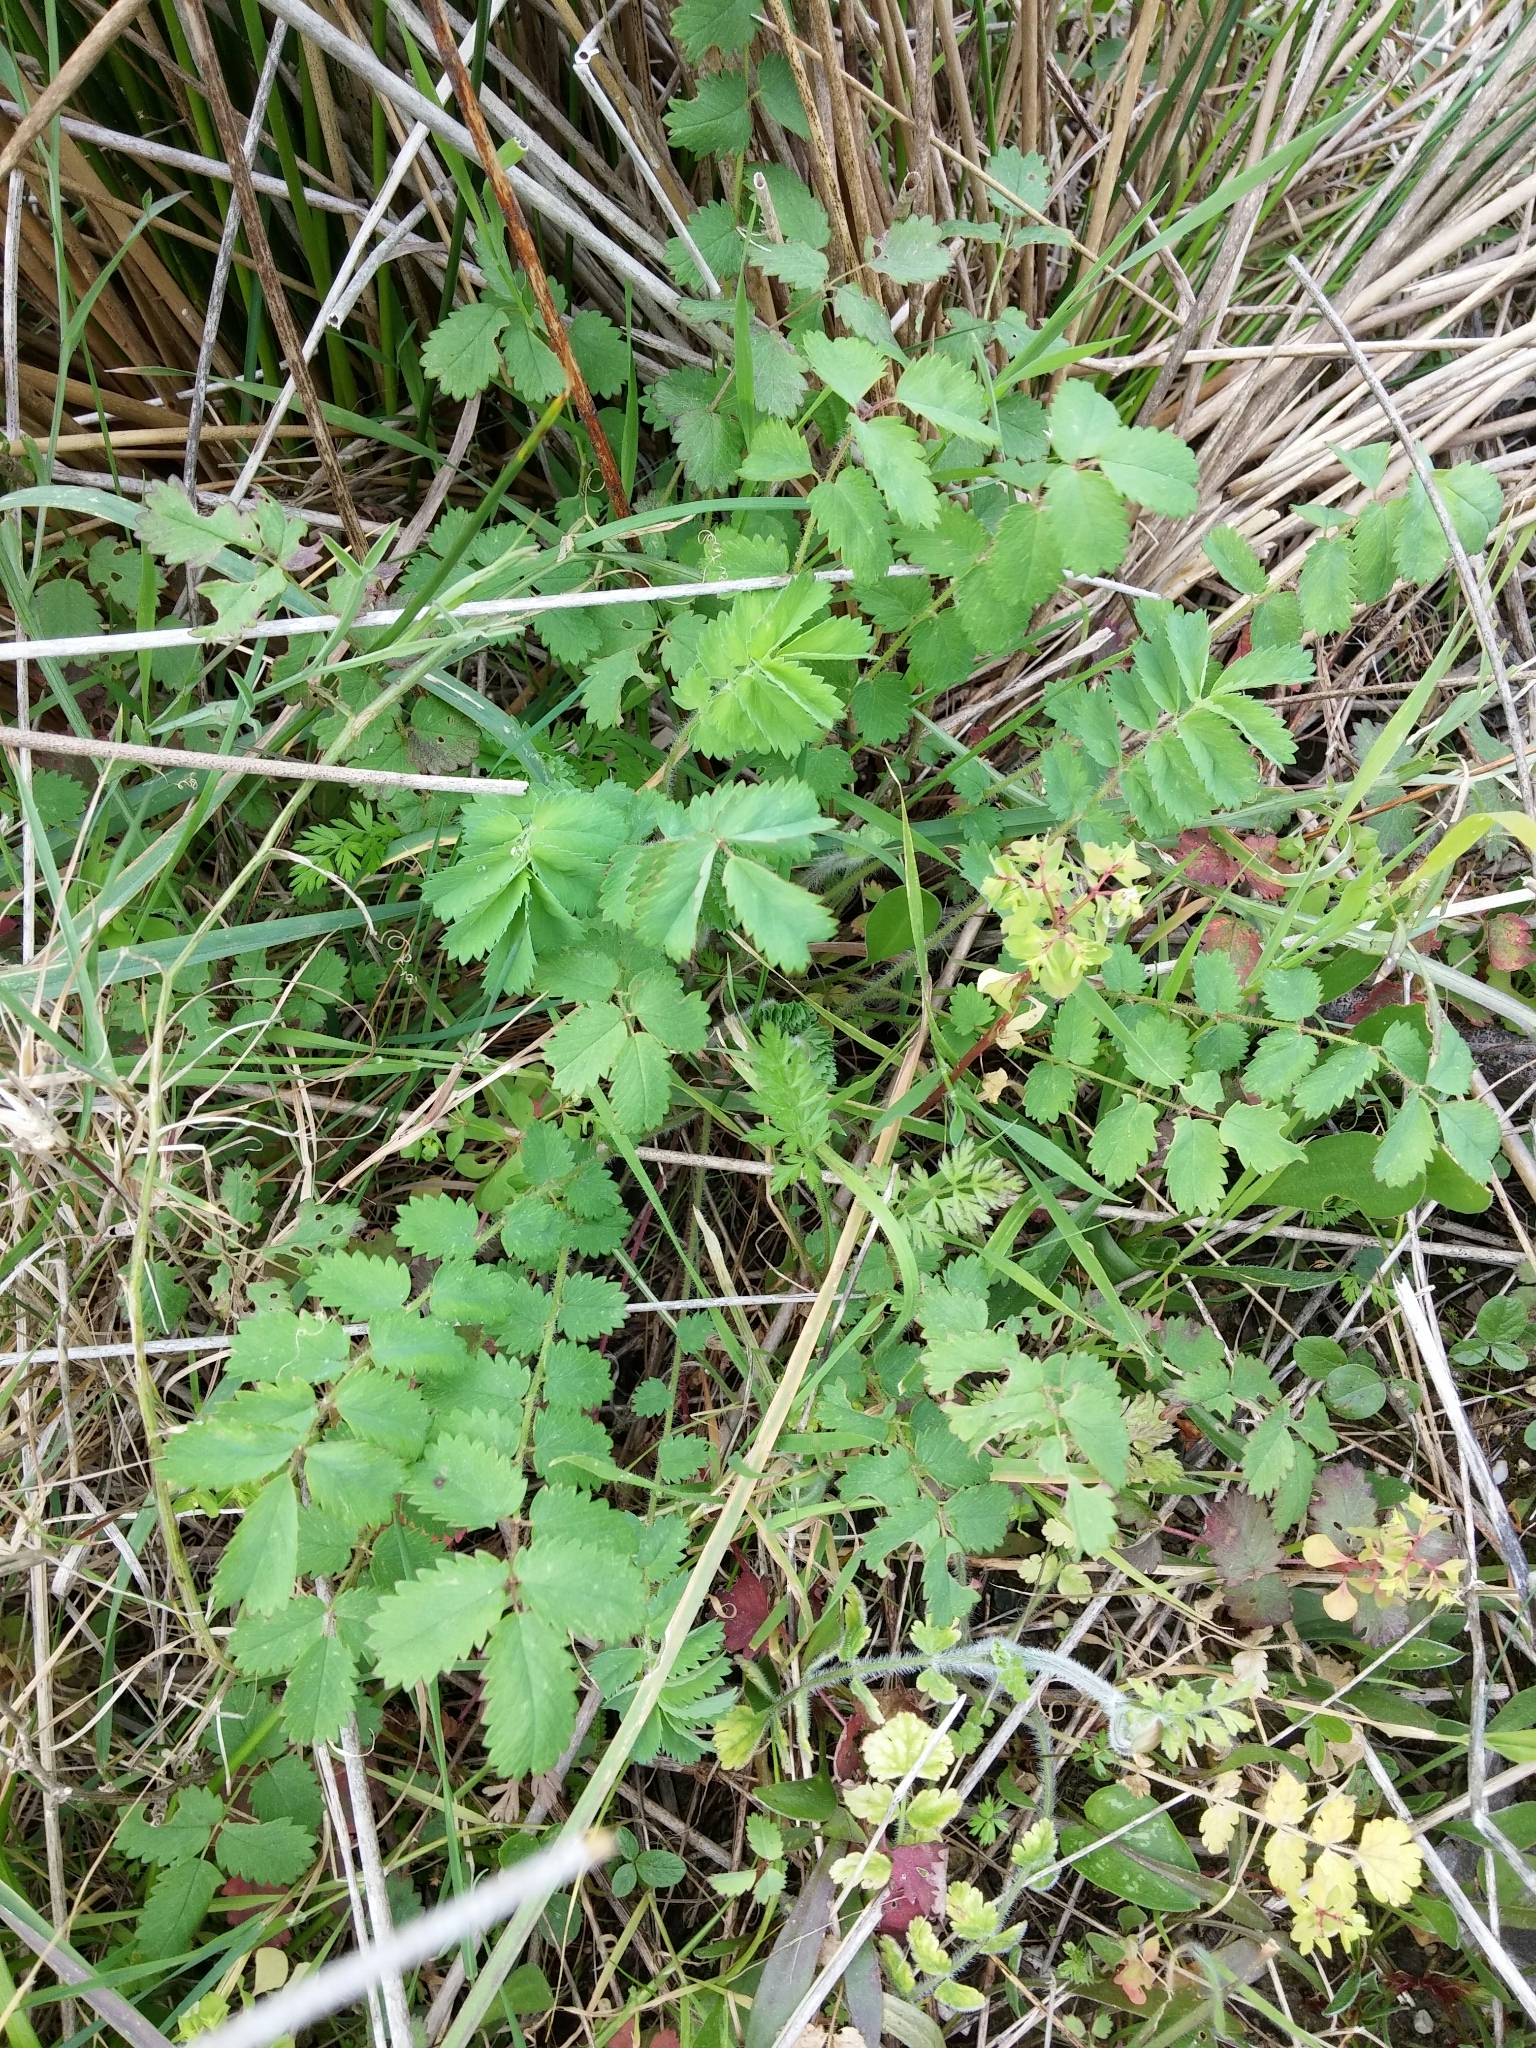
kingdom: Plantae
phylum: Tracheophyta
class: Magnoliopsida
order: Rosales
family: Rosaceae
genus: Poterium
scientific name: Poterium sanguisorba
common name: Salad burnet
